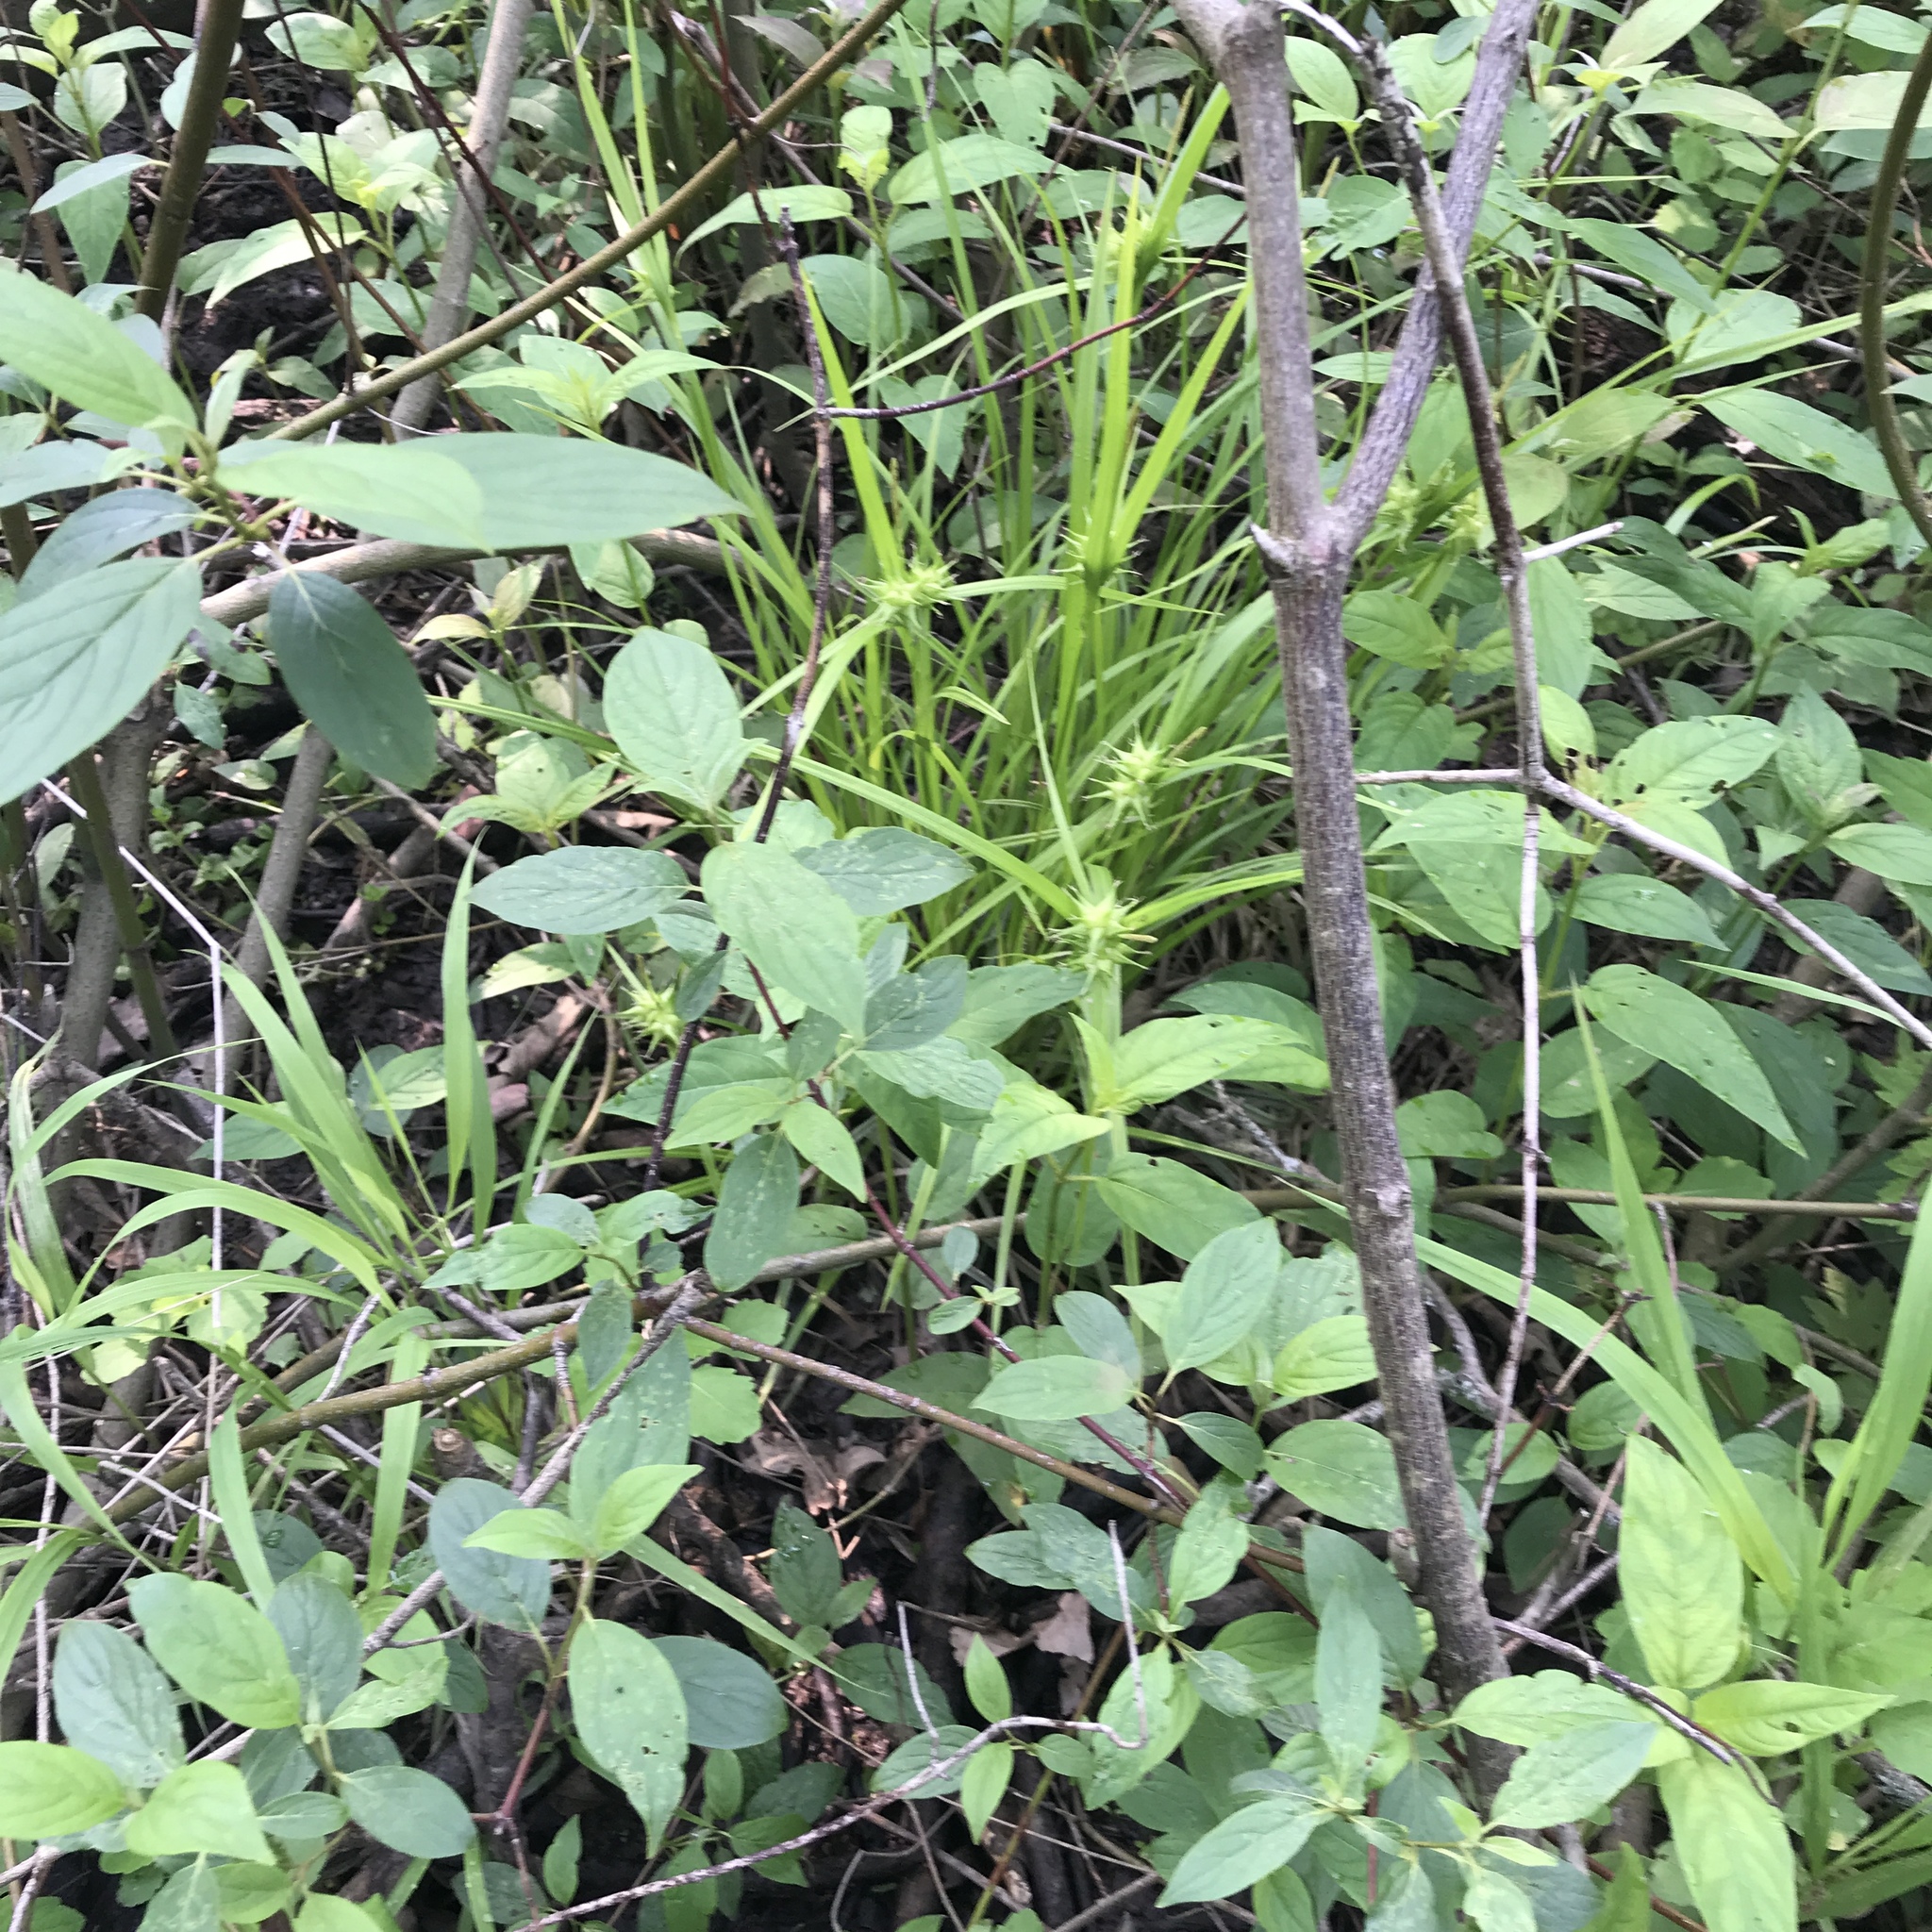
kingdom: Plantae
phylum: Tracheophyta
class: Liliopsida
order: Poales
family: Cyperaceae
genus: Carex
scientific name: Carex intumescens
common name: Greater bladder sedge
